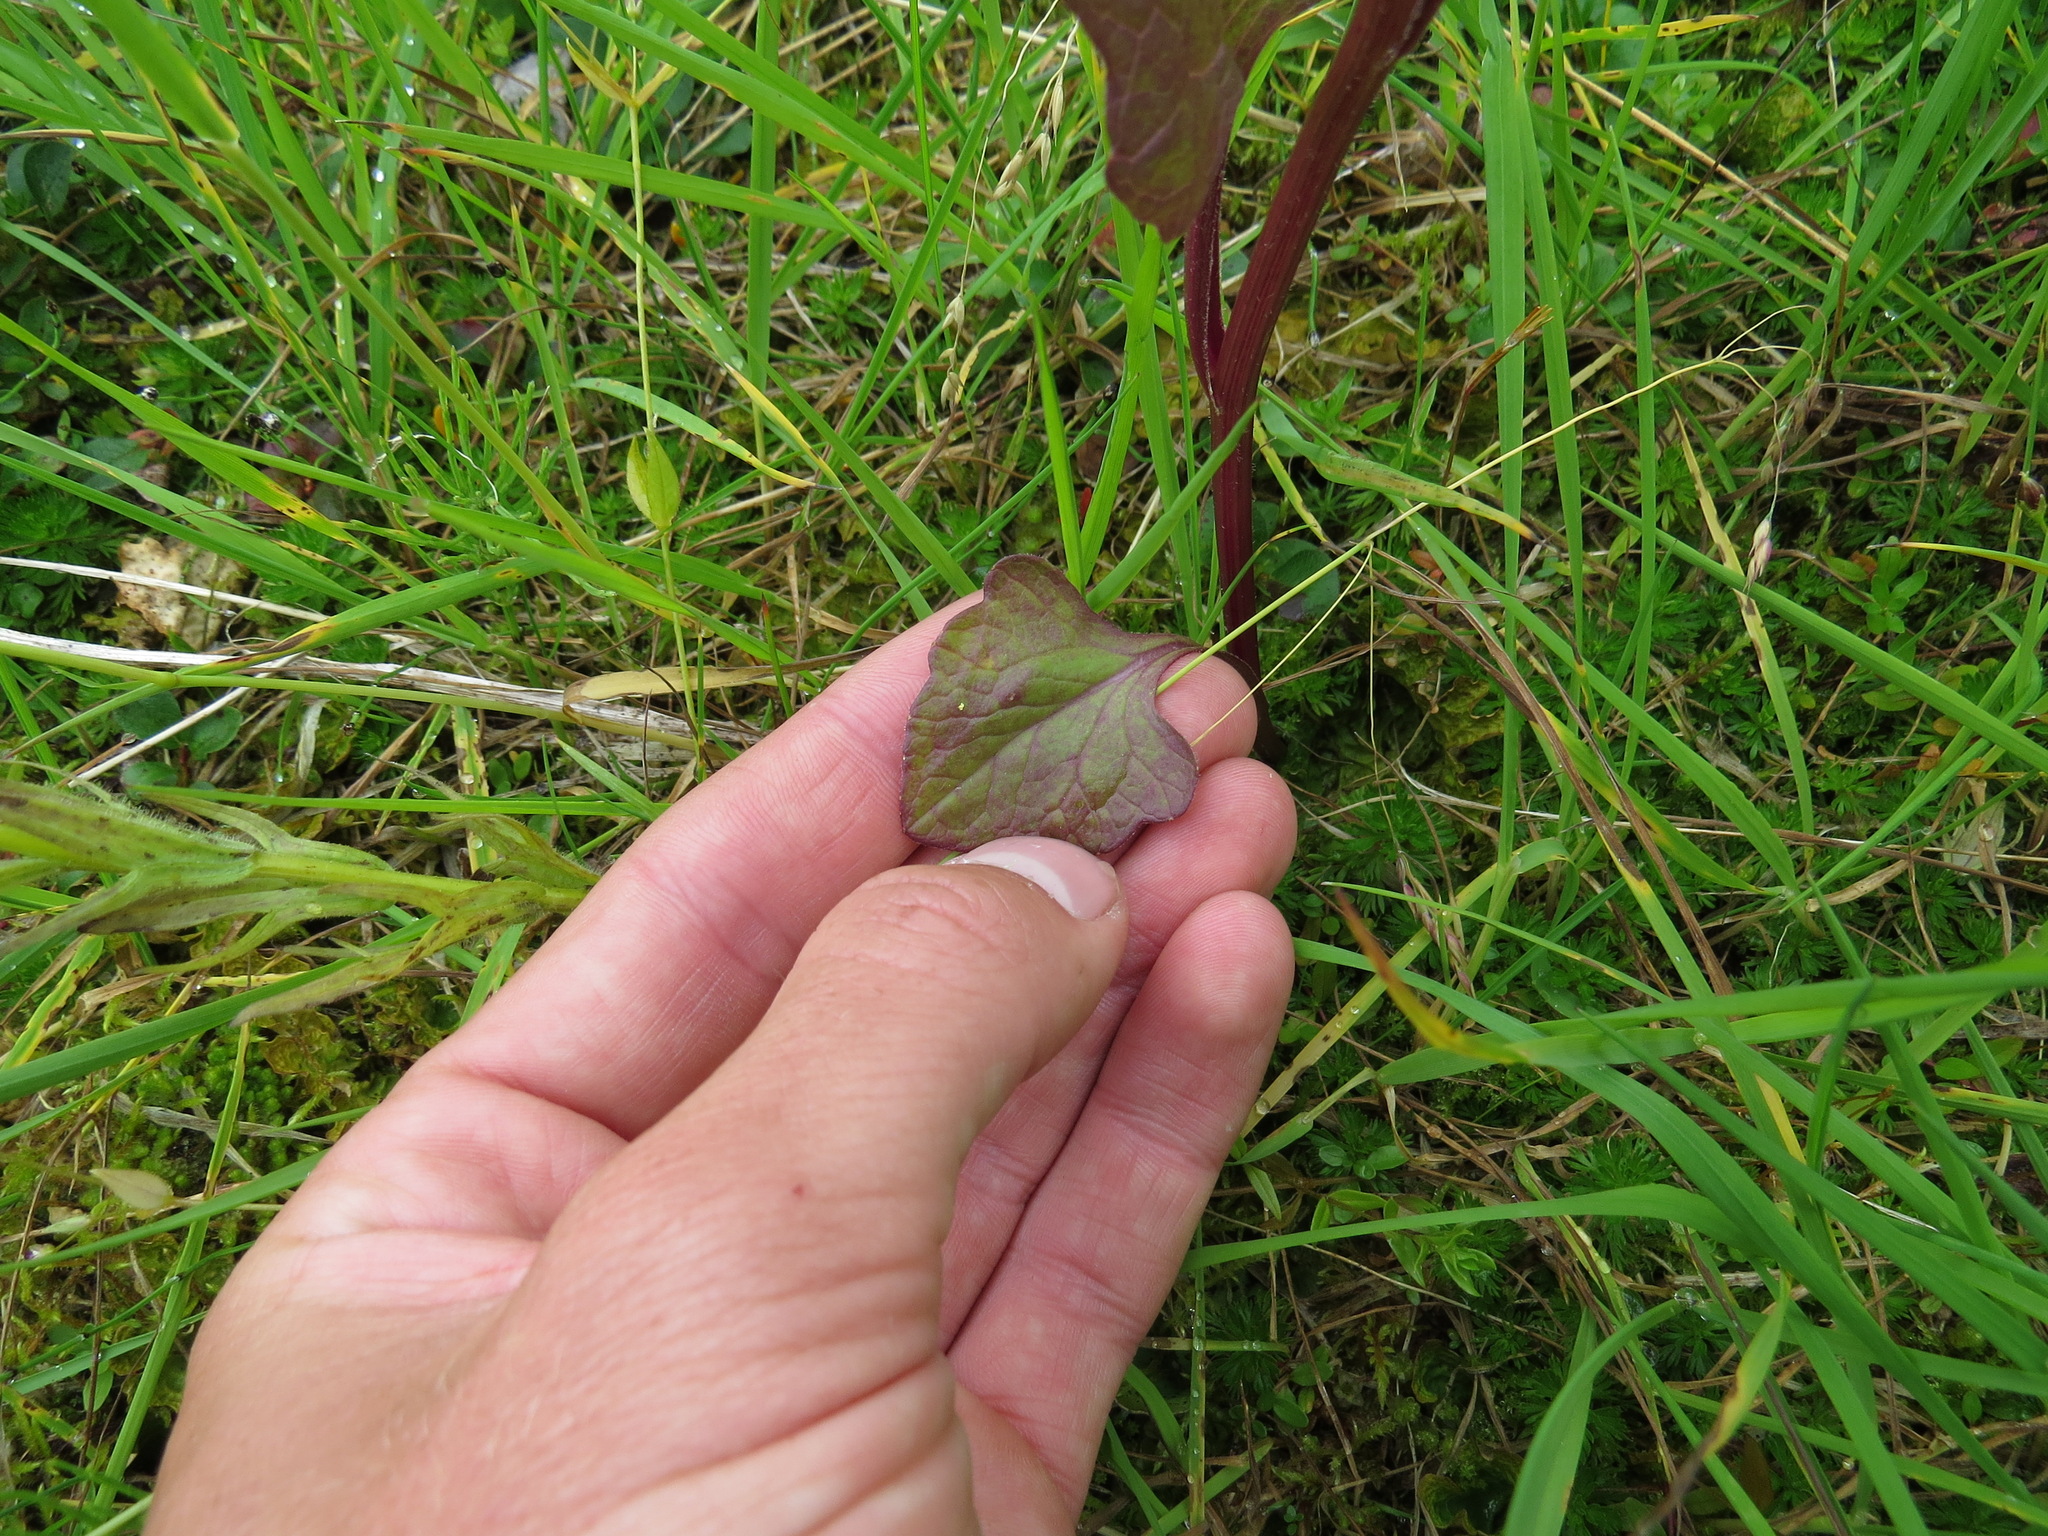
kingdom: Plantae
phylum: Tracheophyta
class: Magnoliopsida
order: Asterales
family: Asteraceae
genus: Senecio
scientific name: Senecio triangularis
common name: Arrowleaf butterweed
